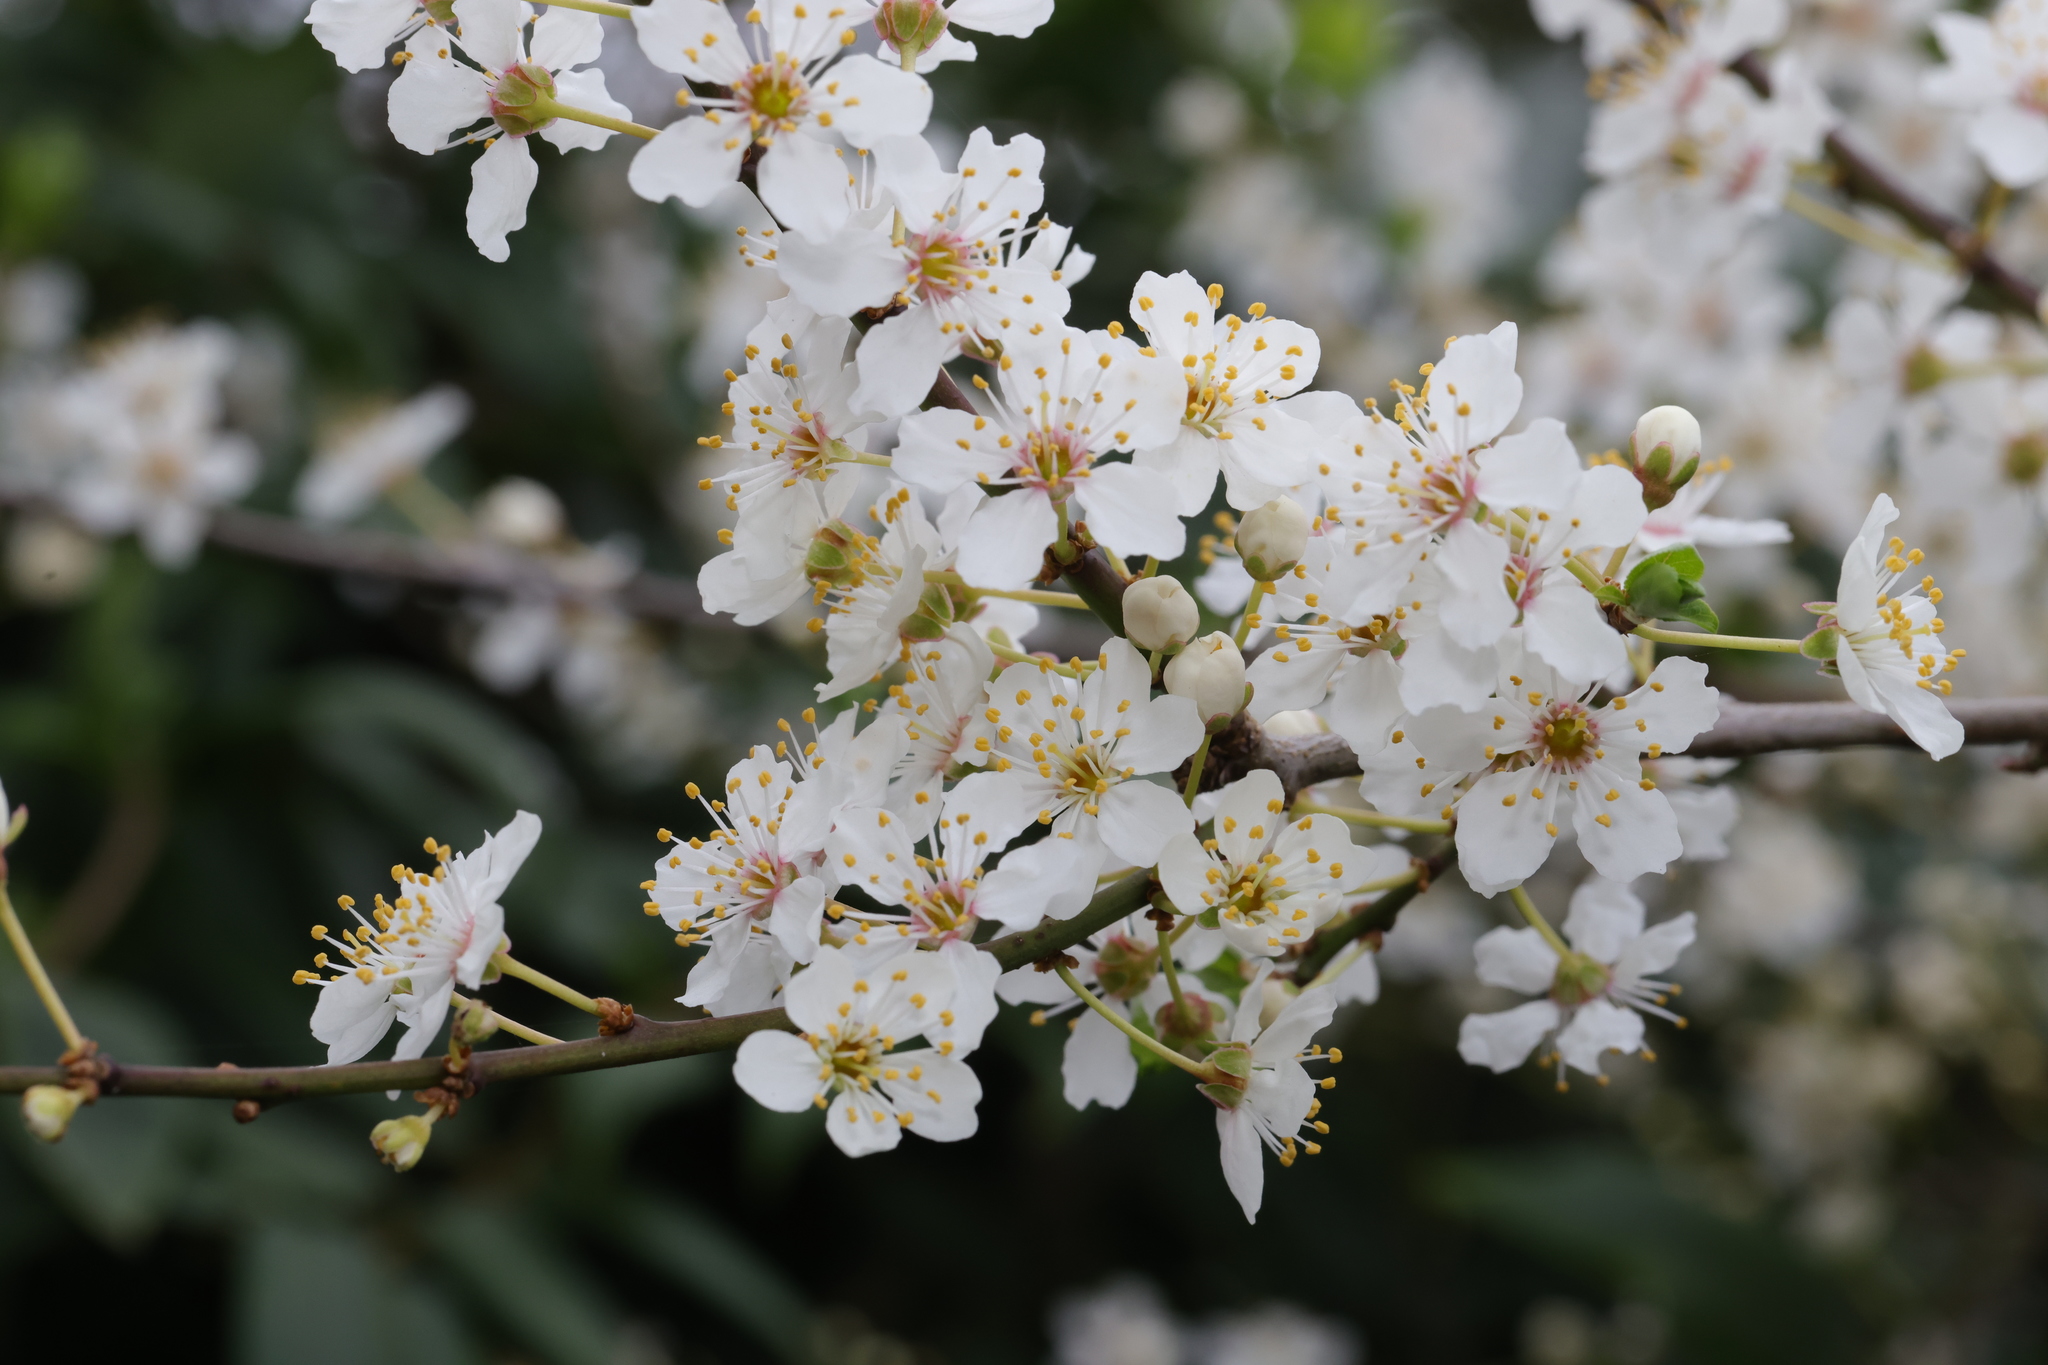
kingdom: Plantae
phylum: Tracheophyta
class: Magnoliopsida
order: Rosales
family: Rosaceae
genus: Prunus
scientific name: Prunus cerasifera
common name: Cherry plum
